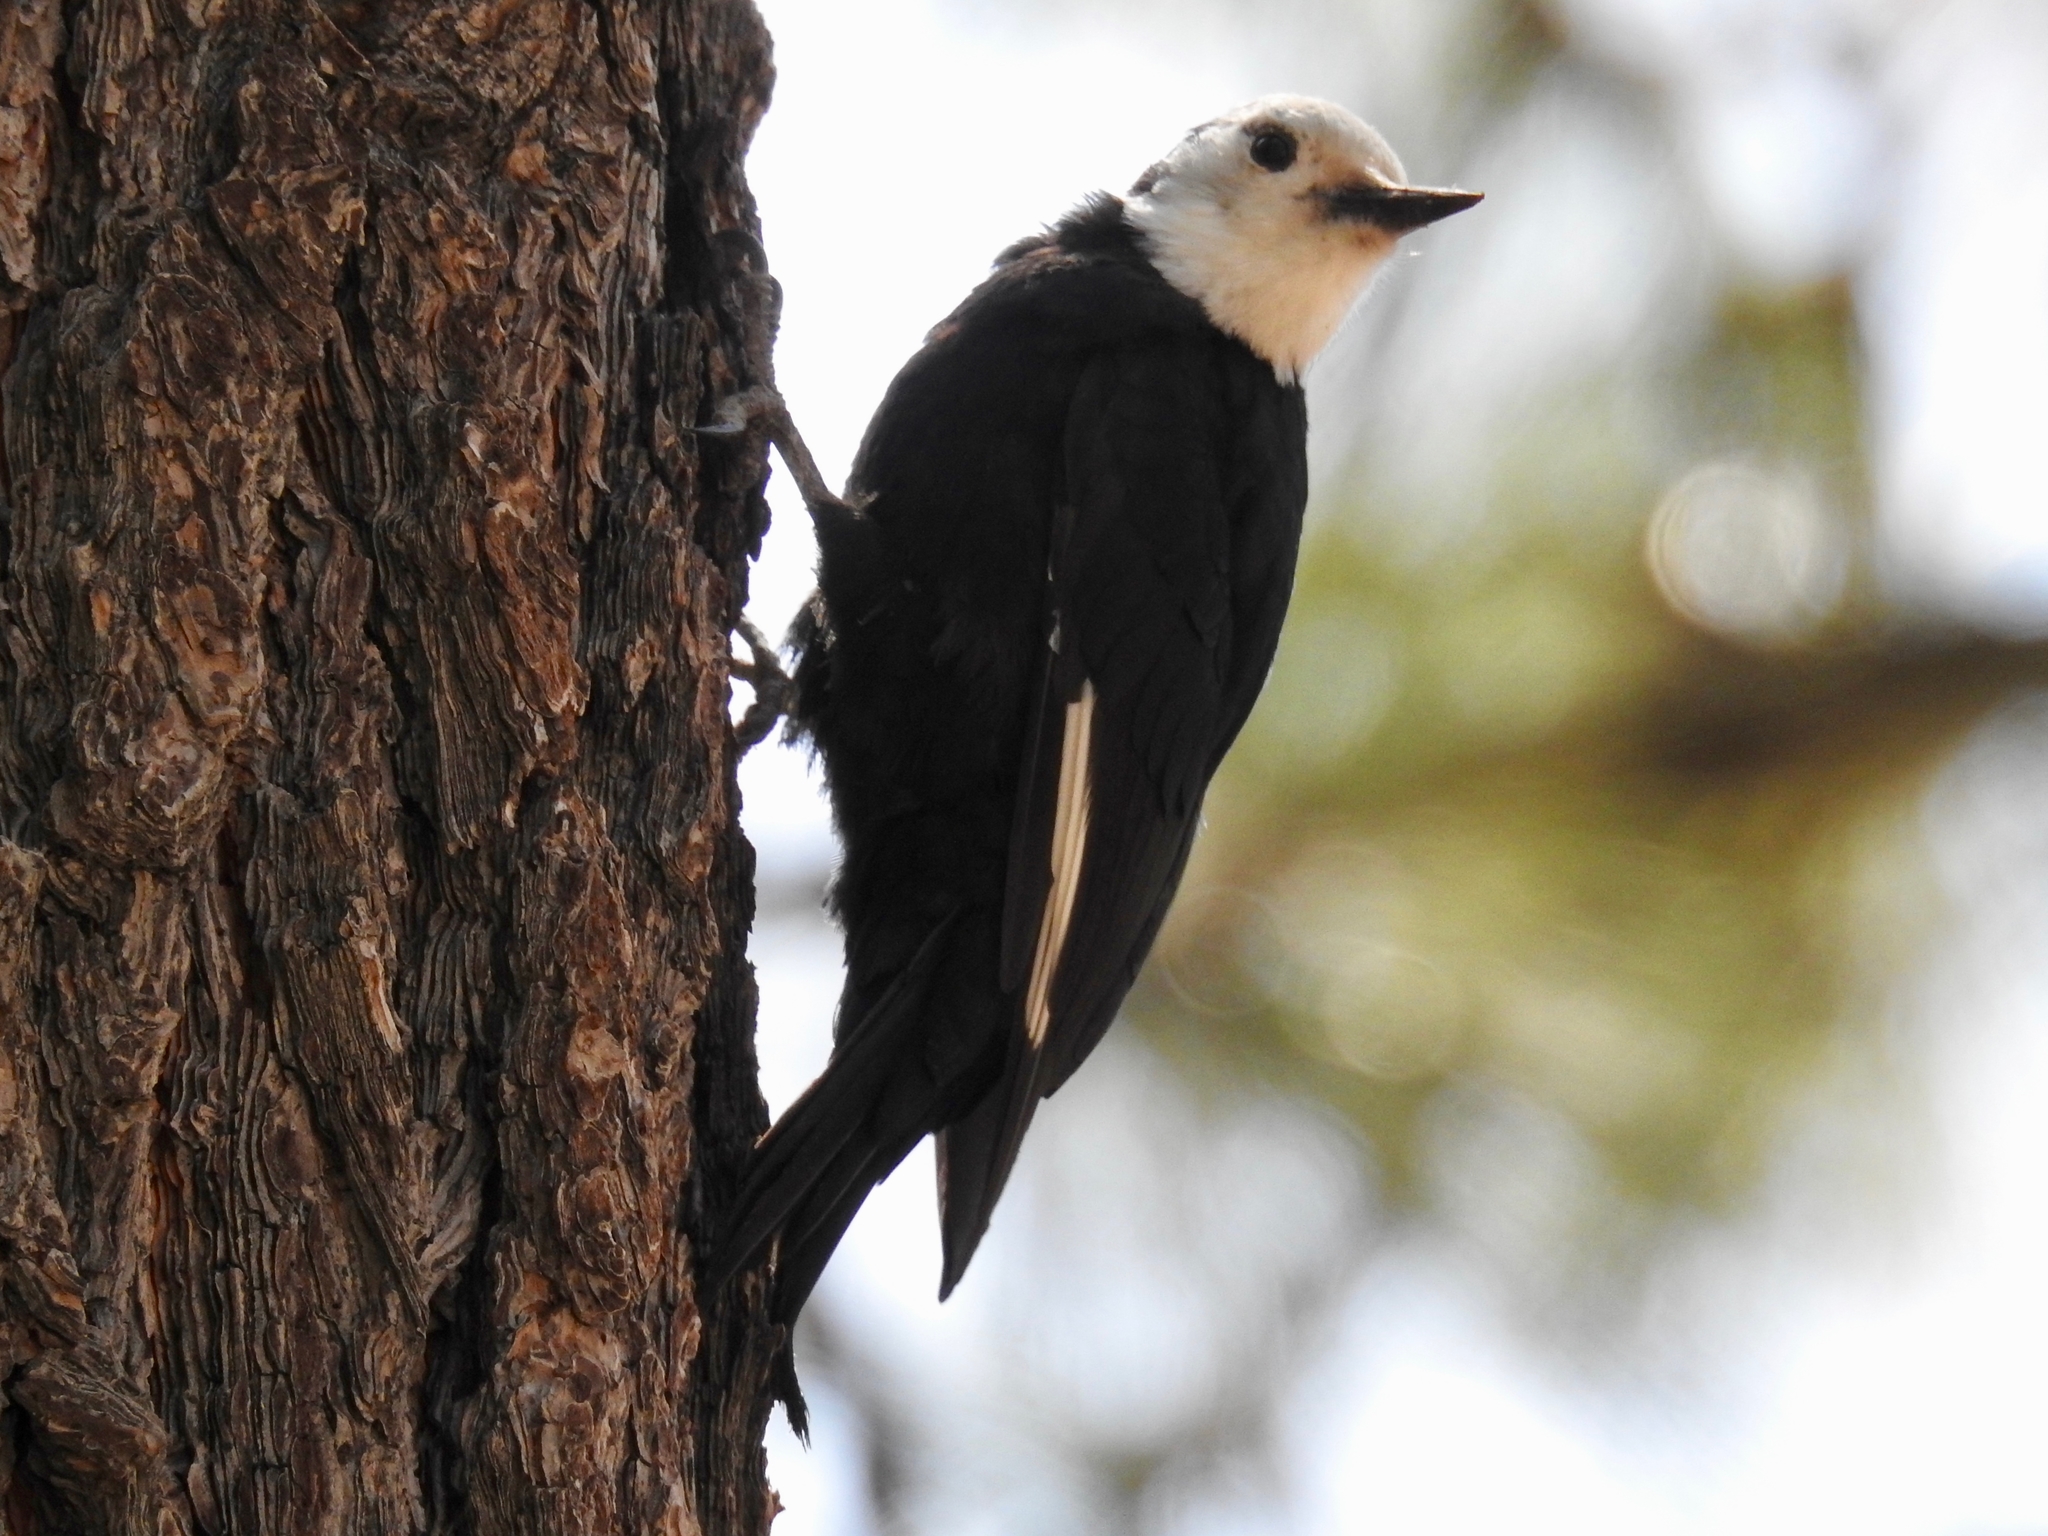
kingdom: Animalia
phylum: Chordata
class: Aves
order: Piciformes
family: Picidae
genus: Leuconotopicus
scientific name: Leuconotopicus albolarvatus
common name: White-headed woodpecker
